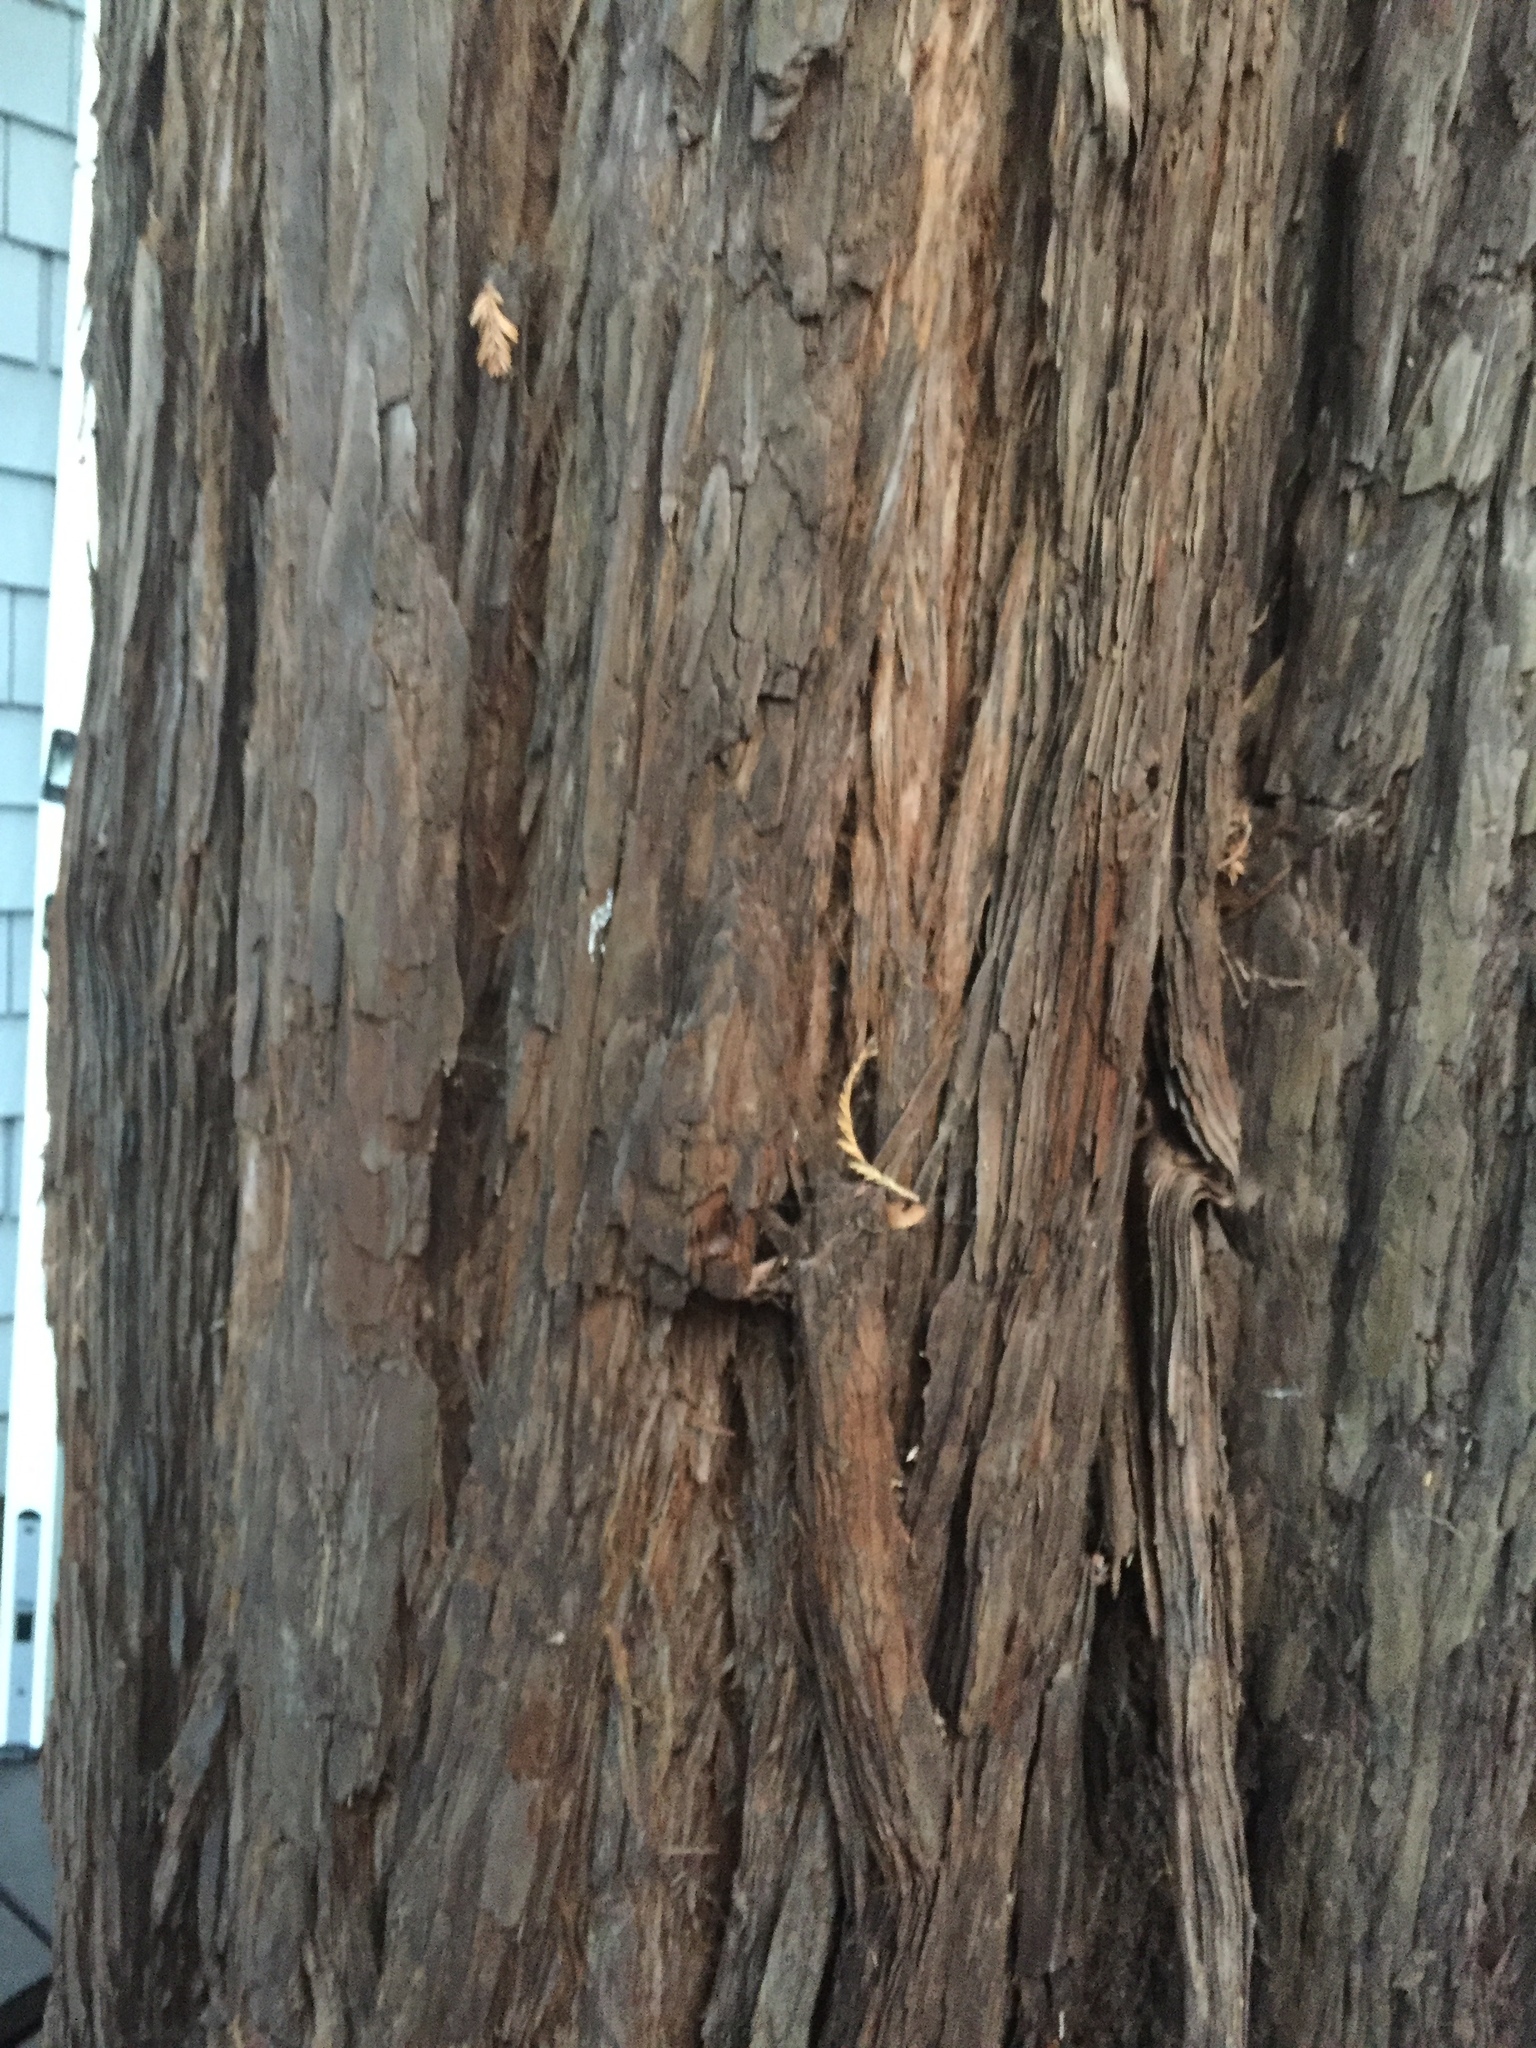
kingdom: Plantae
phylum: Tracheophyta
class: Pinopsida
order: Pinales
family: Cupressaceae
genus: Sequoia
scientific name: Sequoia sempervirens
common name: Coast redwood
